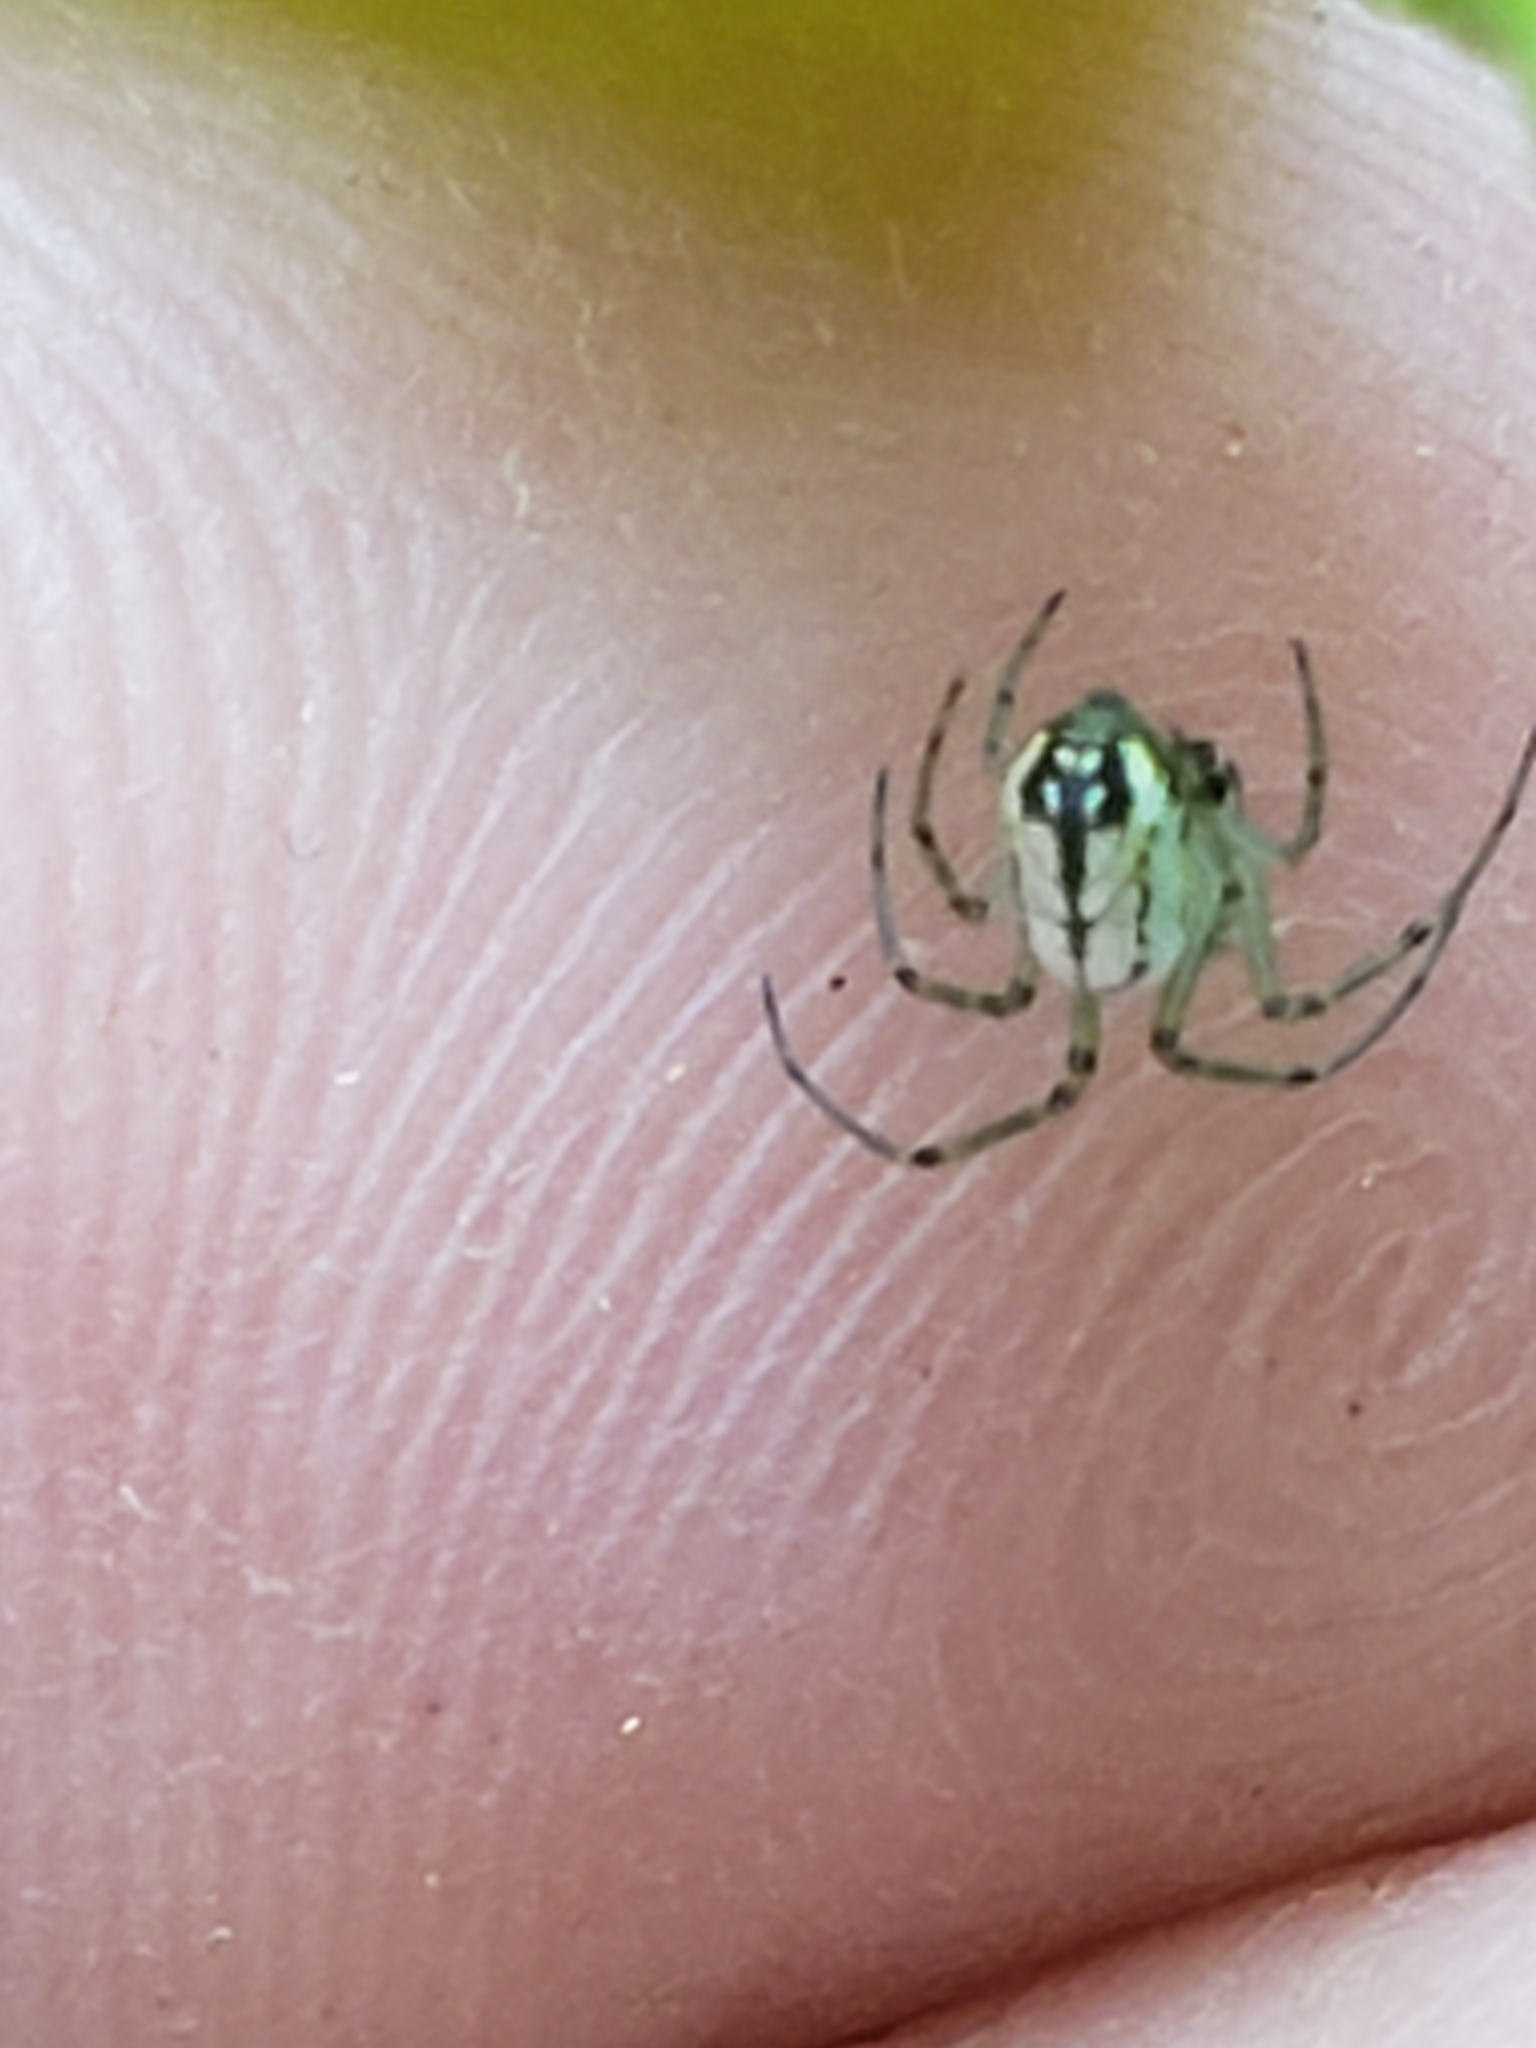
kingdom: Animalia
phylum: Arthropoda
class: Arachnida
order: Araneae
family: Tetragnathidae
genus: Leucauge
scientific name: Leucauge venusta
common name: Longjawed orb weavers
